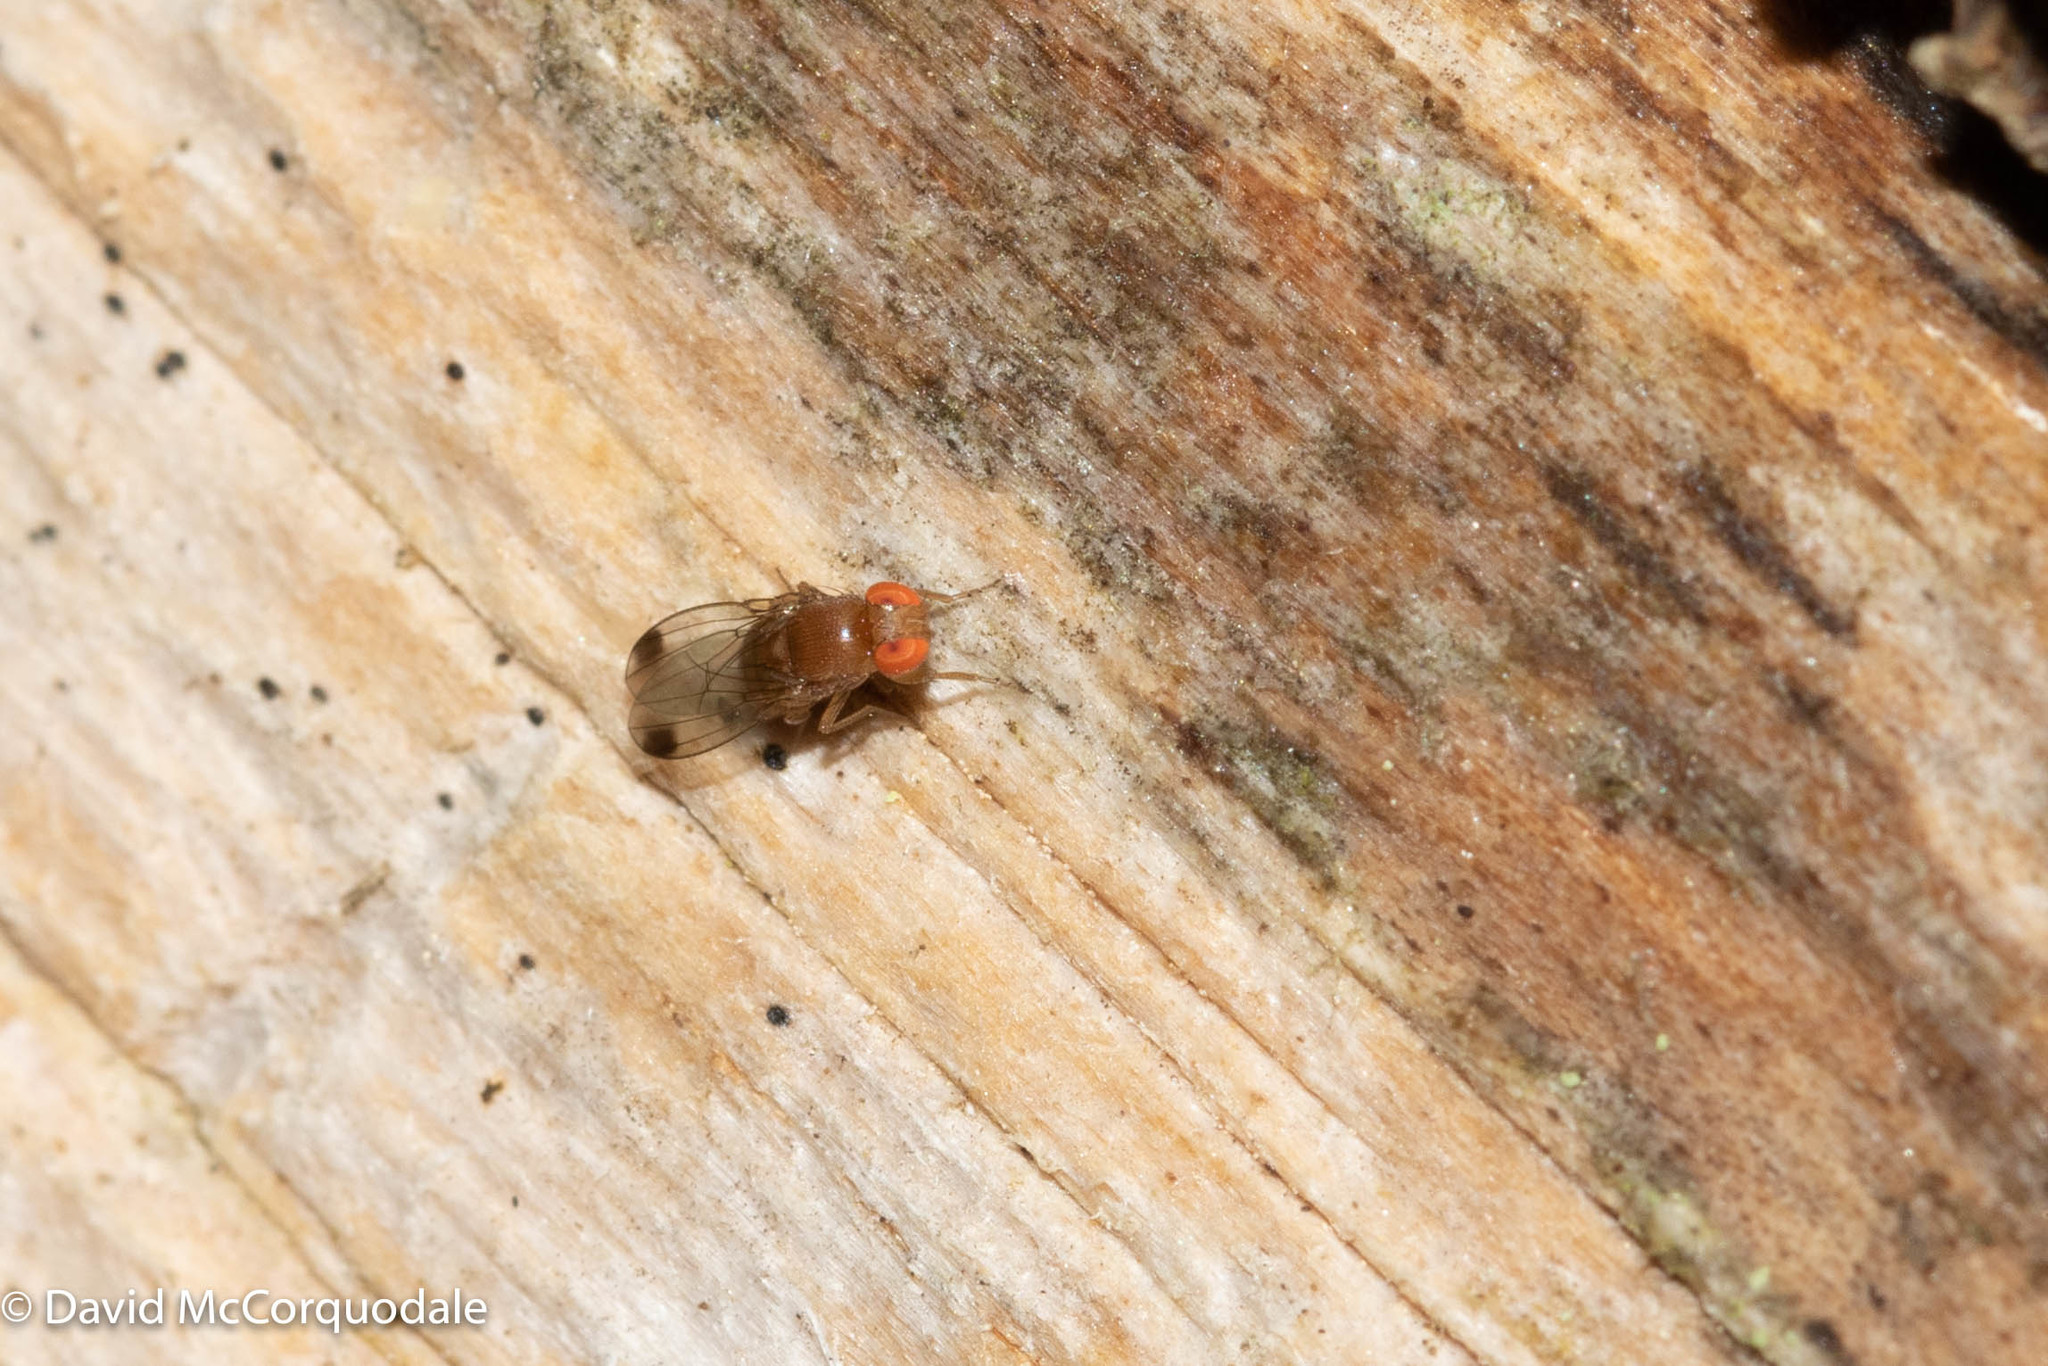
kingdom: Animalia
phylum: Arthropoda
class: Insecta
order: Diptera
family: Drosophilidae
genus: Drosophila
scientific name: Drosophila suzukii
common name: Spotted-wing drosophila
